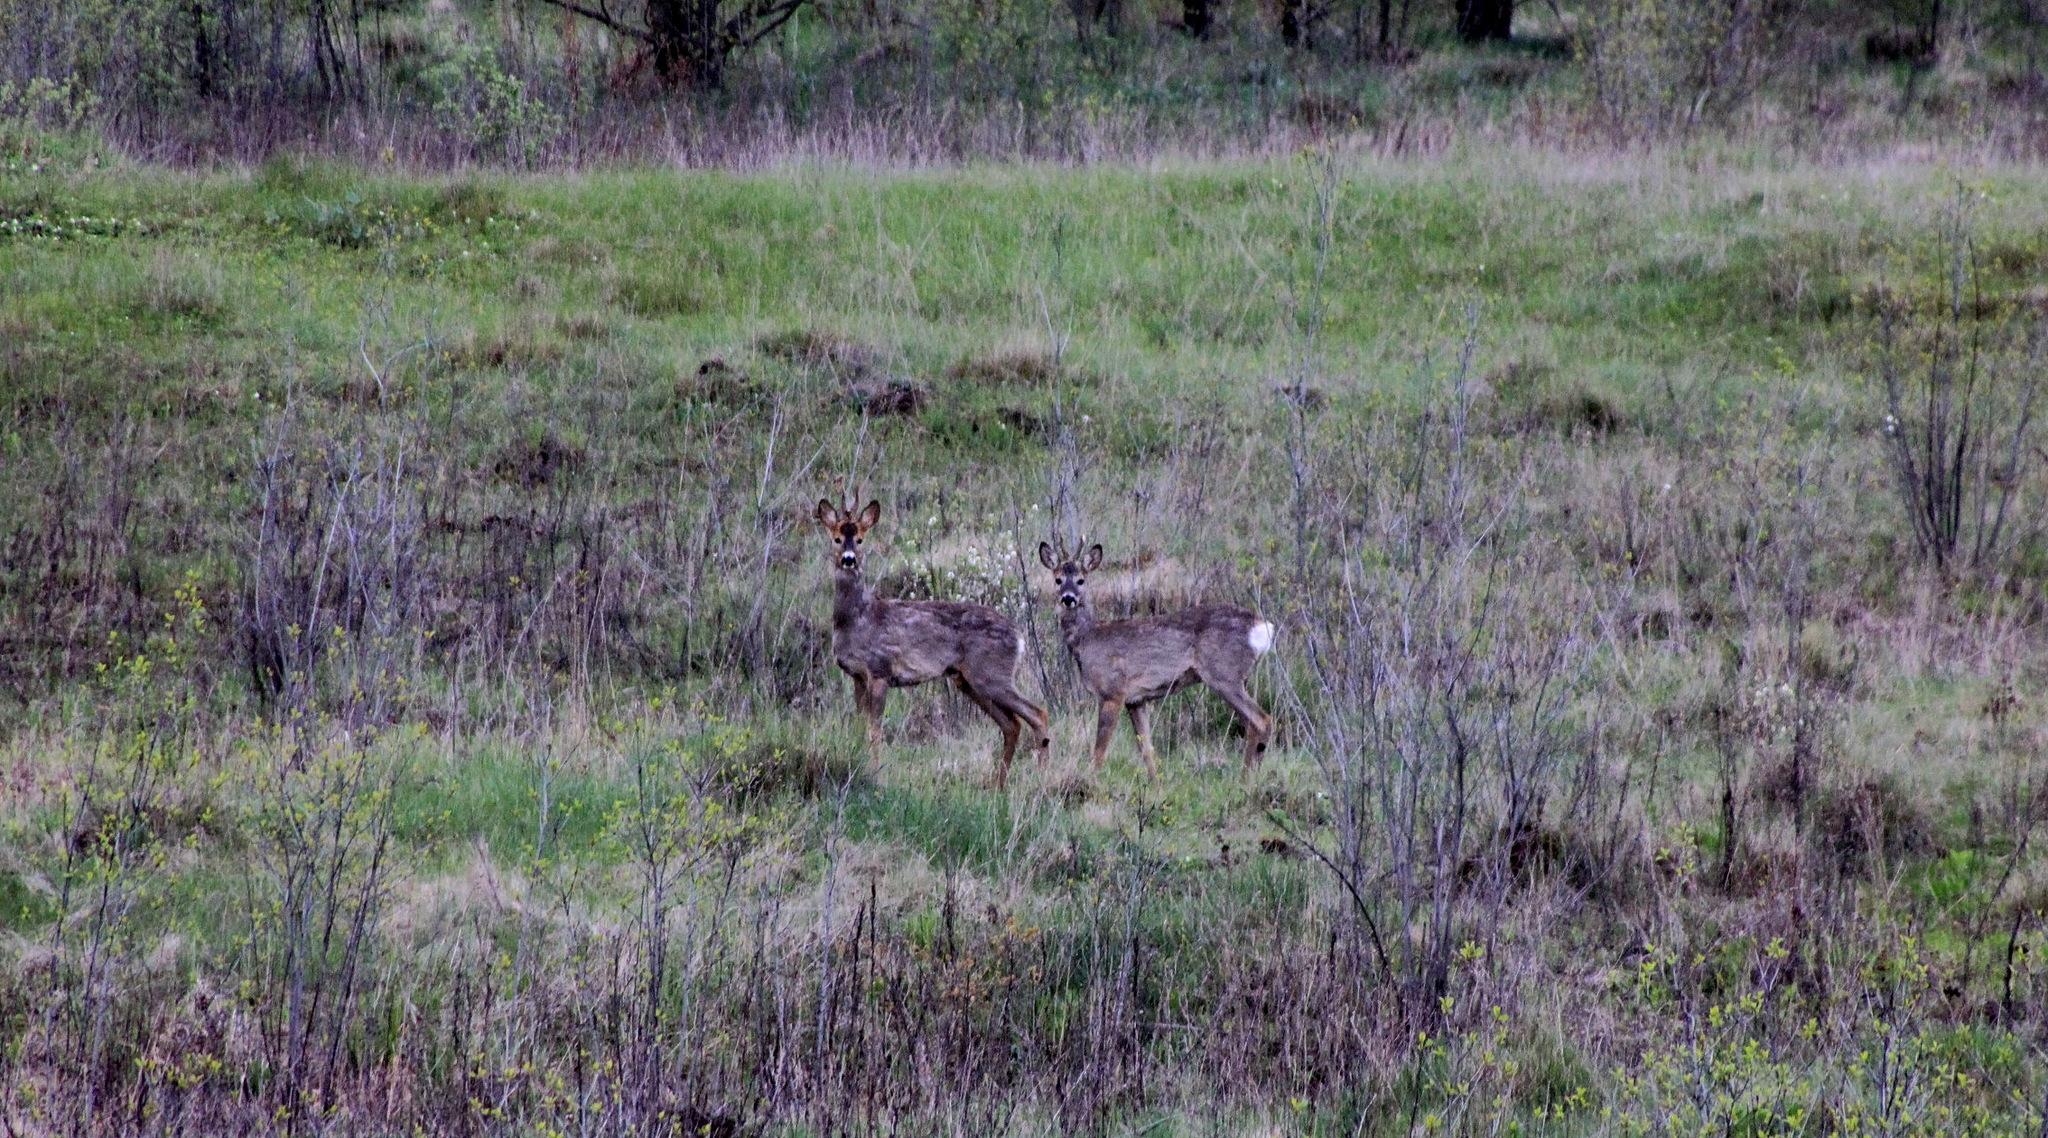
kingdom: Animalia
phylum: Chordata
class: Mammalia
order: Artiodactyla
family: Cervidae
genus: Capreolus
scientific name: Capreolus capreolus
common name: Western roe deer
